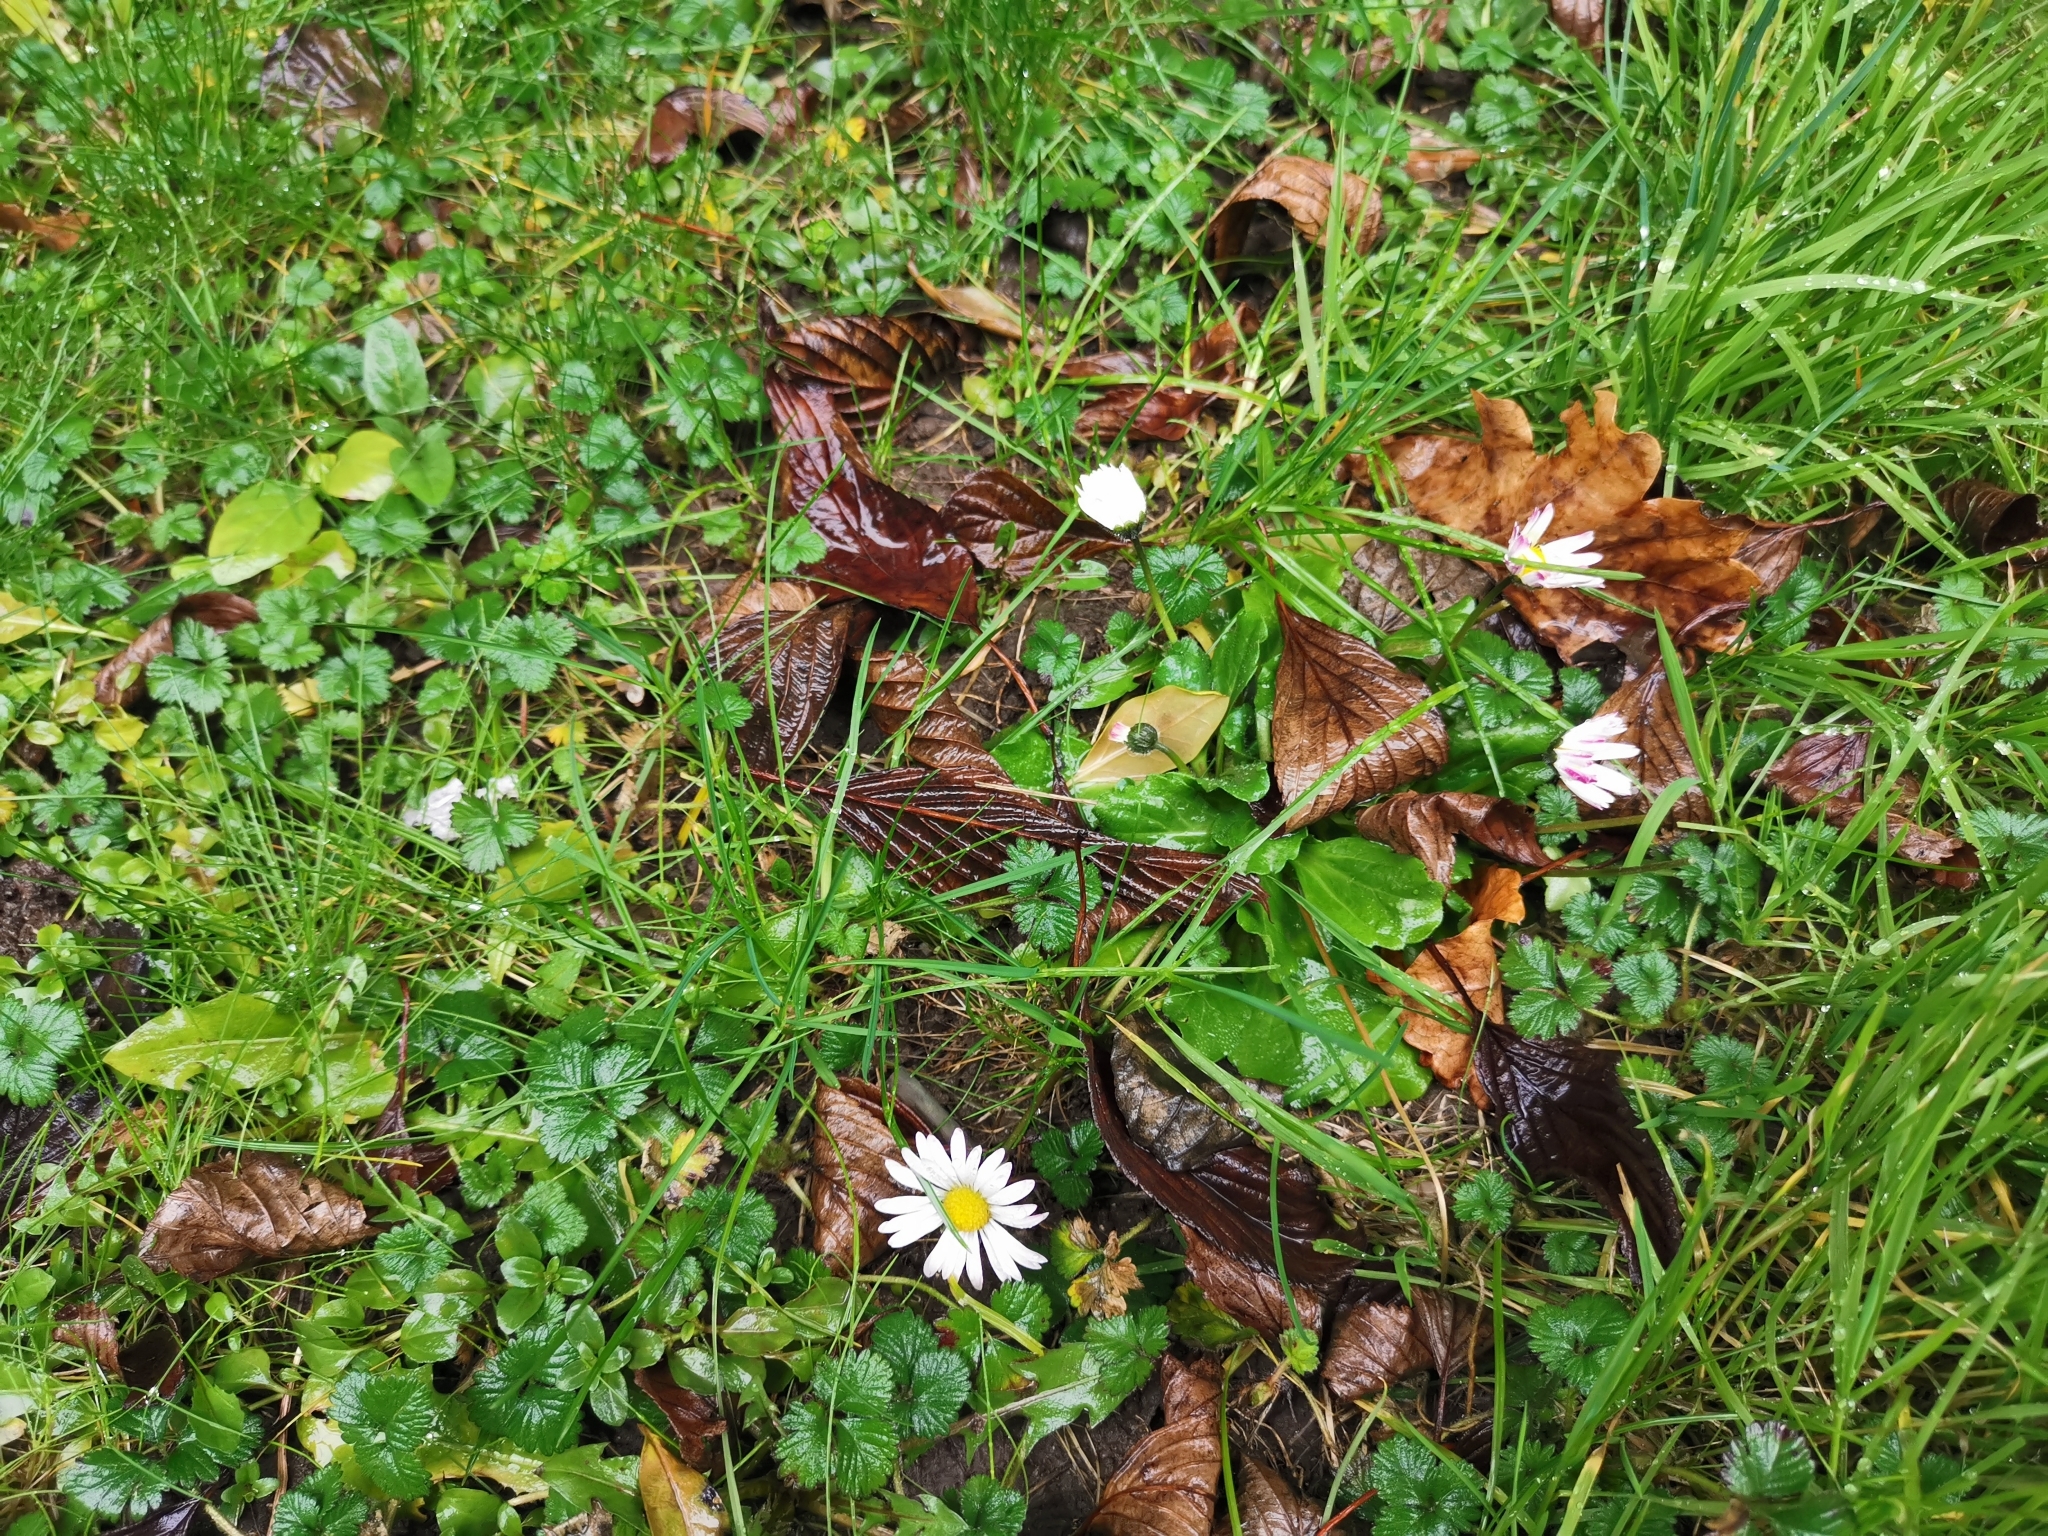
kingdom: Plantae
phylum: Tracheophyta
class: Magnoliopsida
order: Asterales
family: Asteraceae
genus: Bellis
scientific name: Bellis perennis
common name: Lawndaisy
